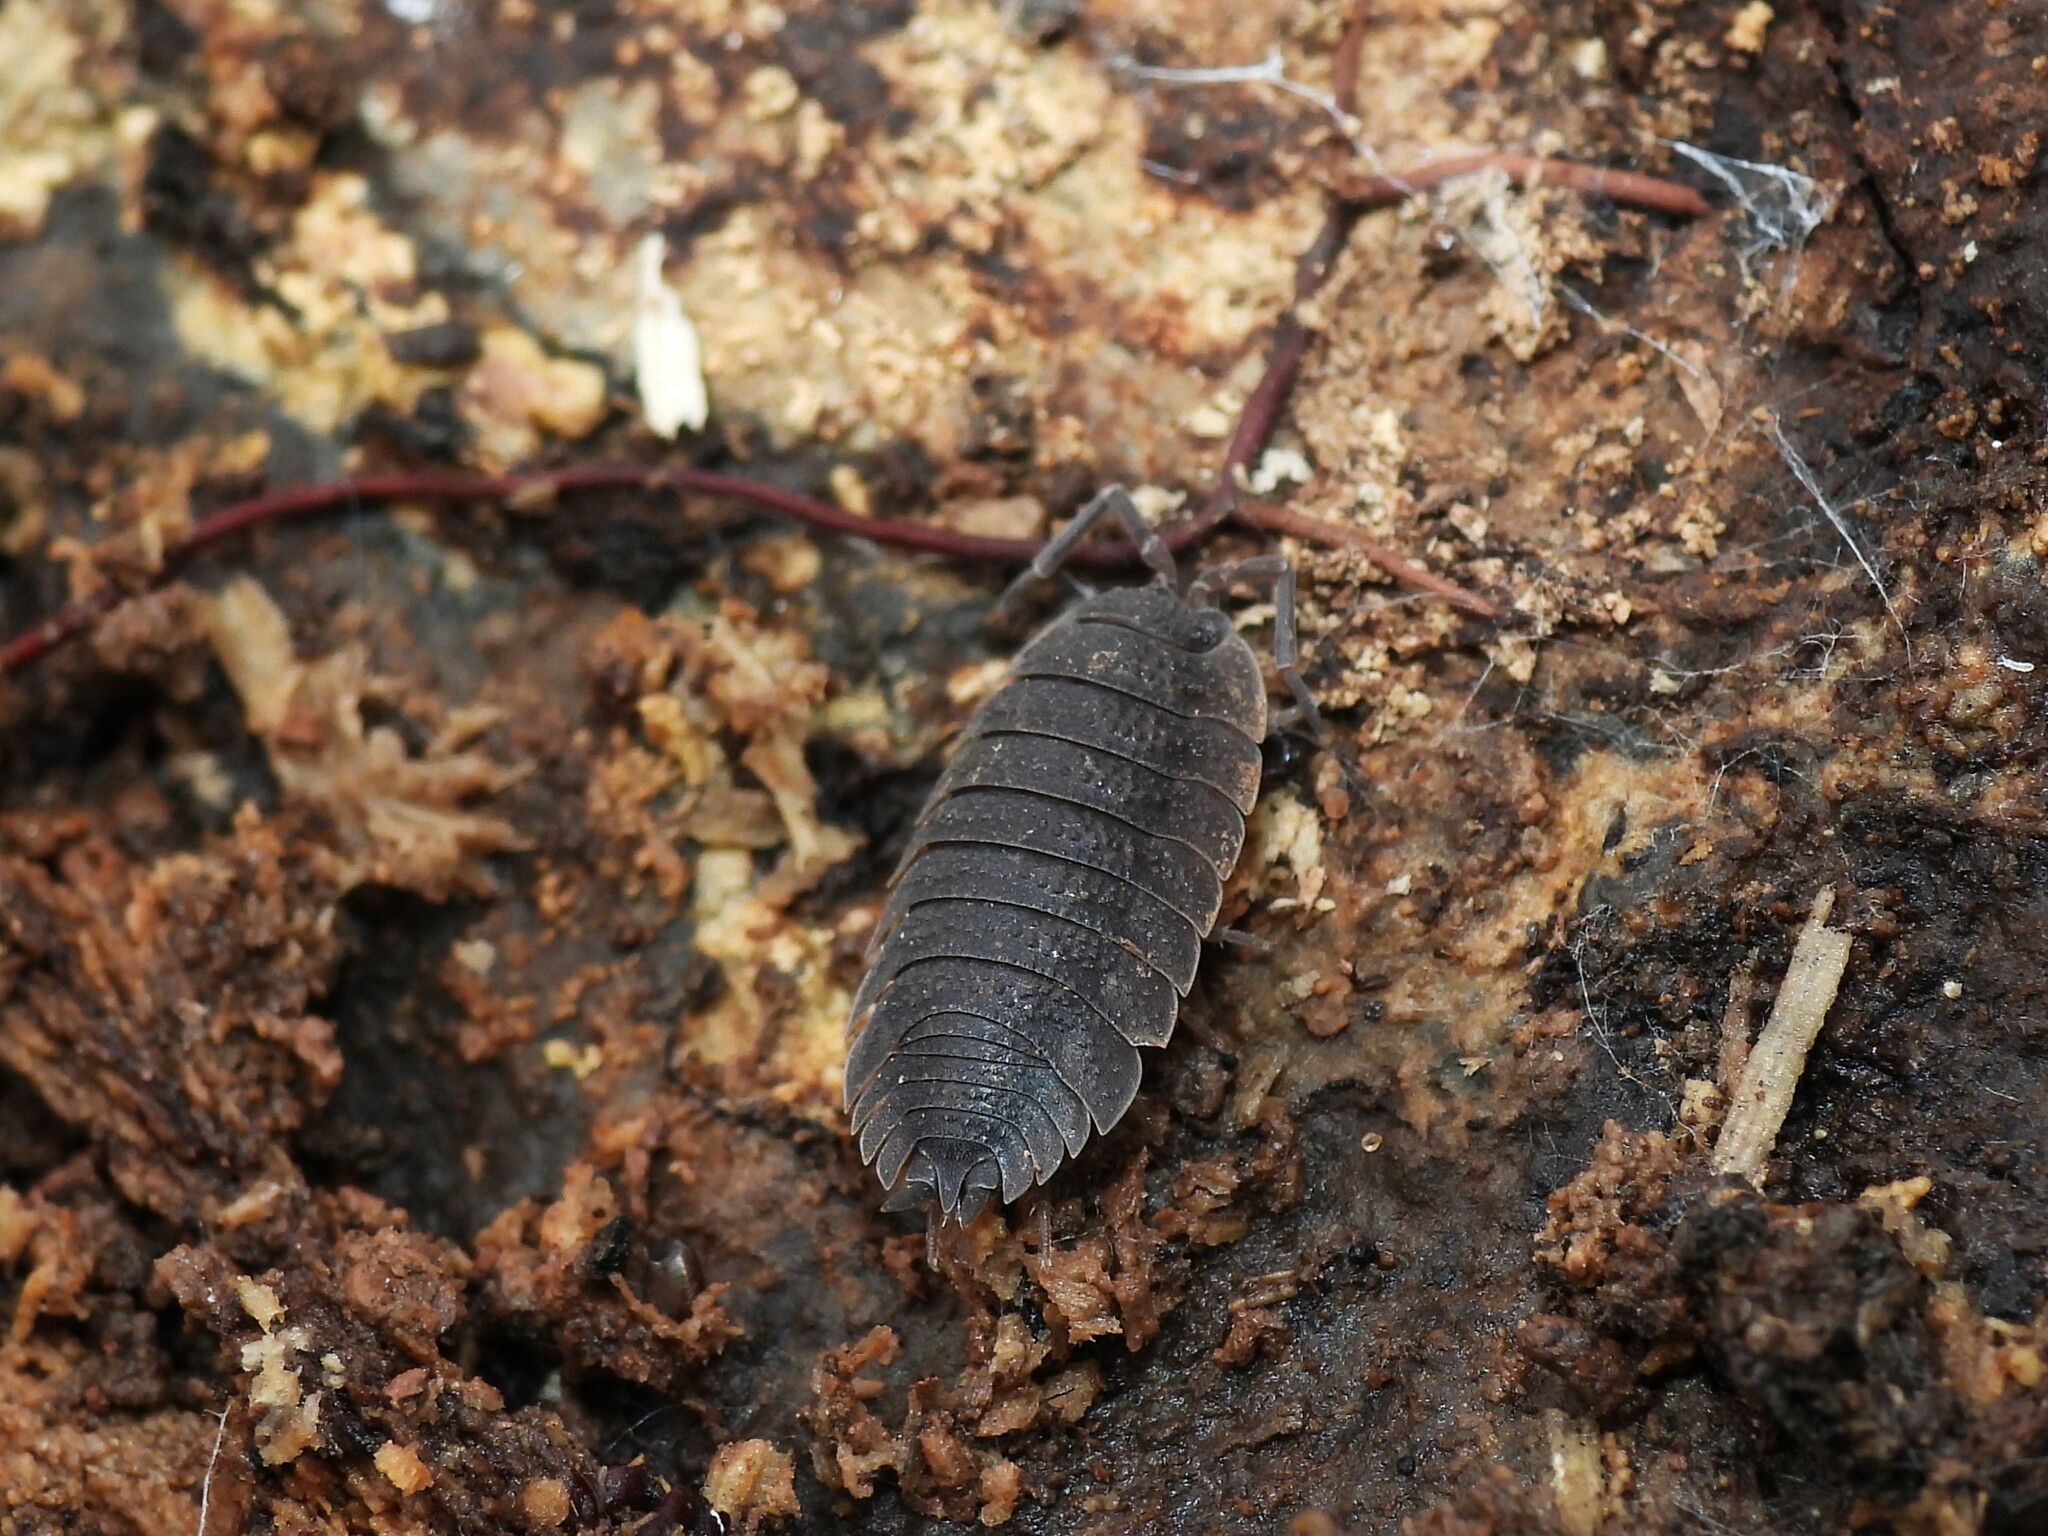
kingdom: Animalia
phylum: Arthropoda
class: Malacostraca
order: Isopoda
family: Porcellionidae
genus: Porcellio
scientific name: Porcellio scaber
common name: Common rough woodlouse
